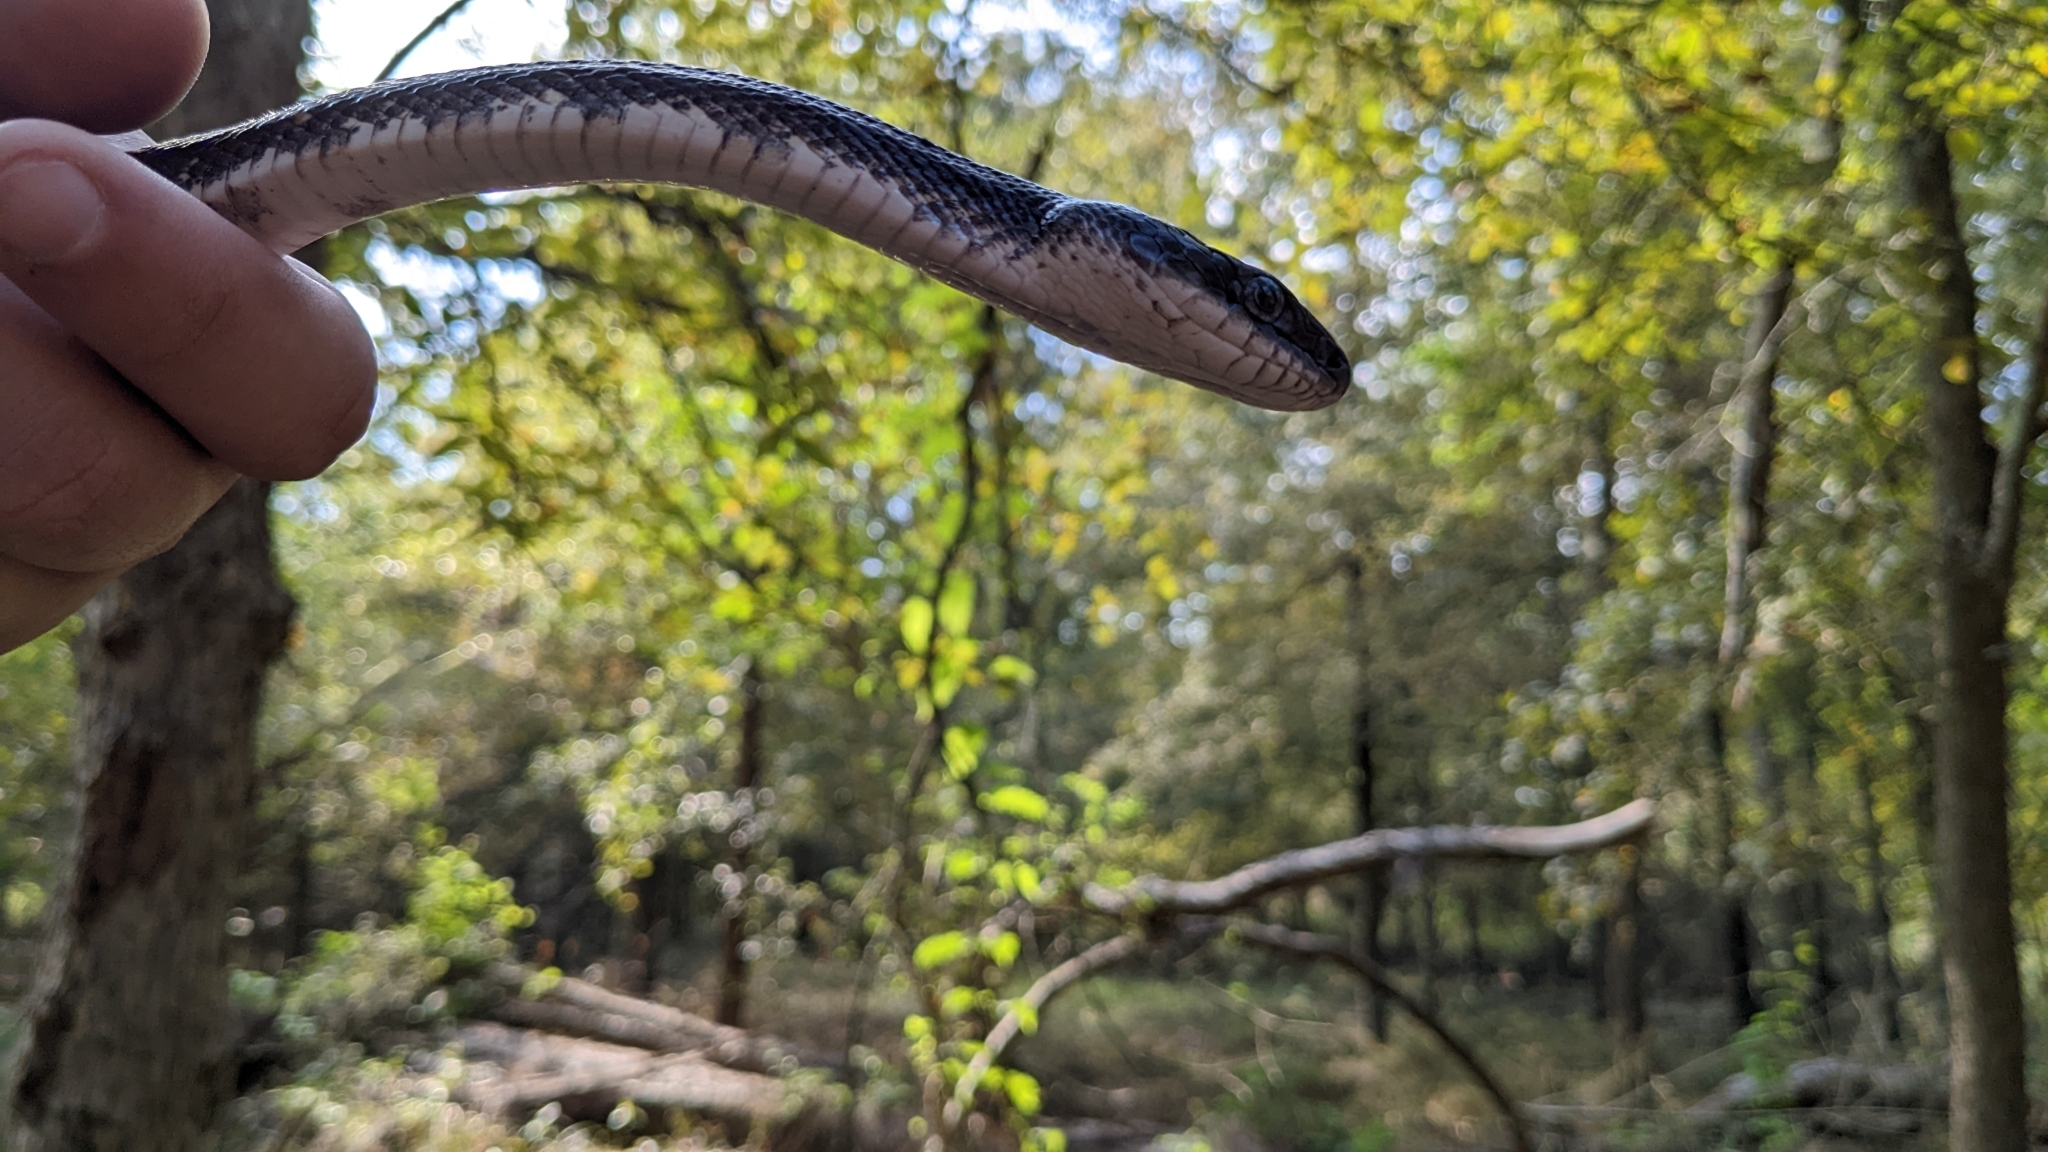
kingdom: Animalia
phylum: Chordata
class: Squamata
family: Colubridae
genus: Pantherophis
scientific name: Pantherophis obsoletus
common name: Black rat snake
